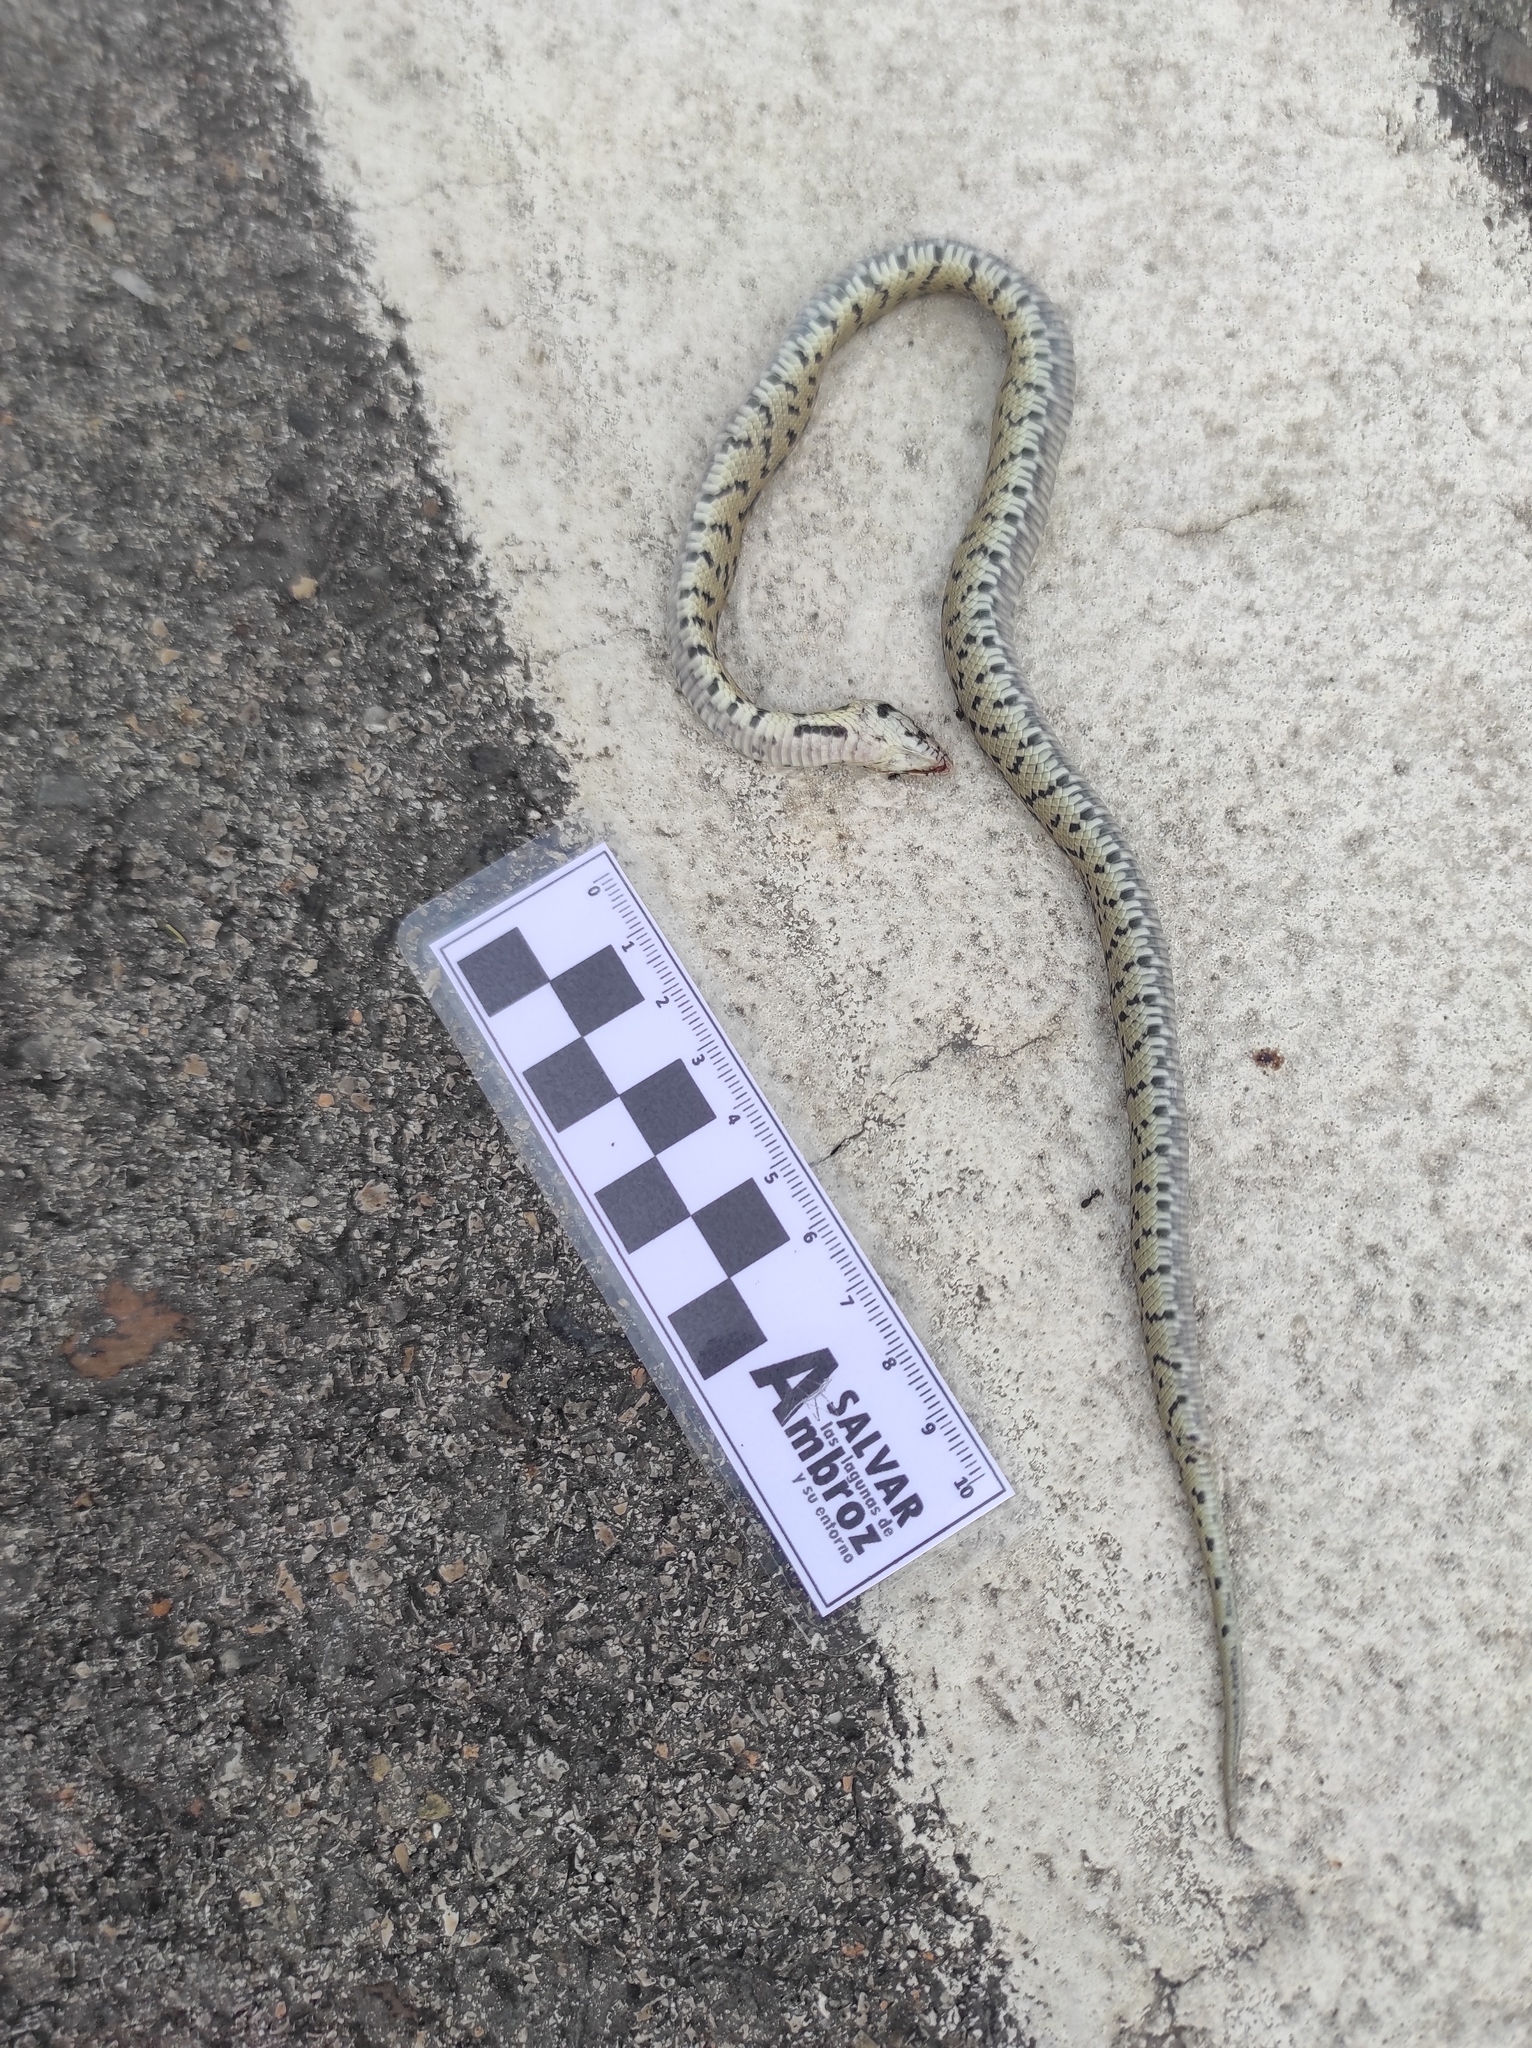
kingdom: Animalia
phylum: Chordata
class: Squamata
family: Colubridae
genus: Zamenis
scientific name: Zamenis scalaris
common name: Ladder snakes
